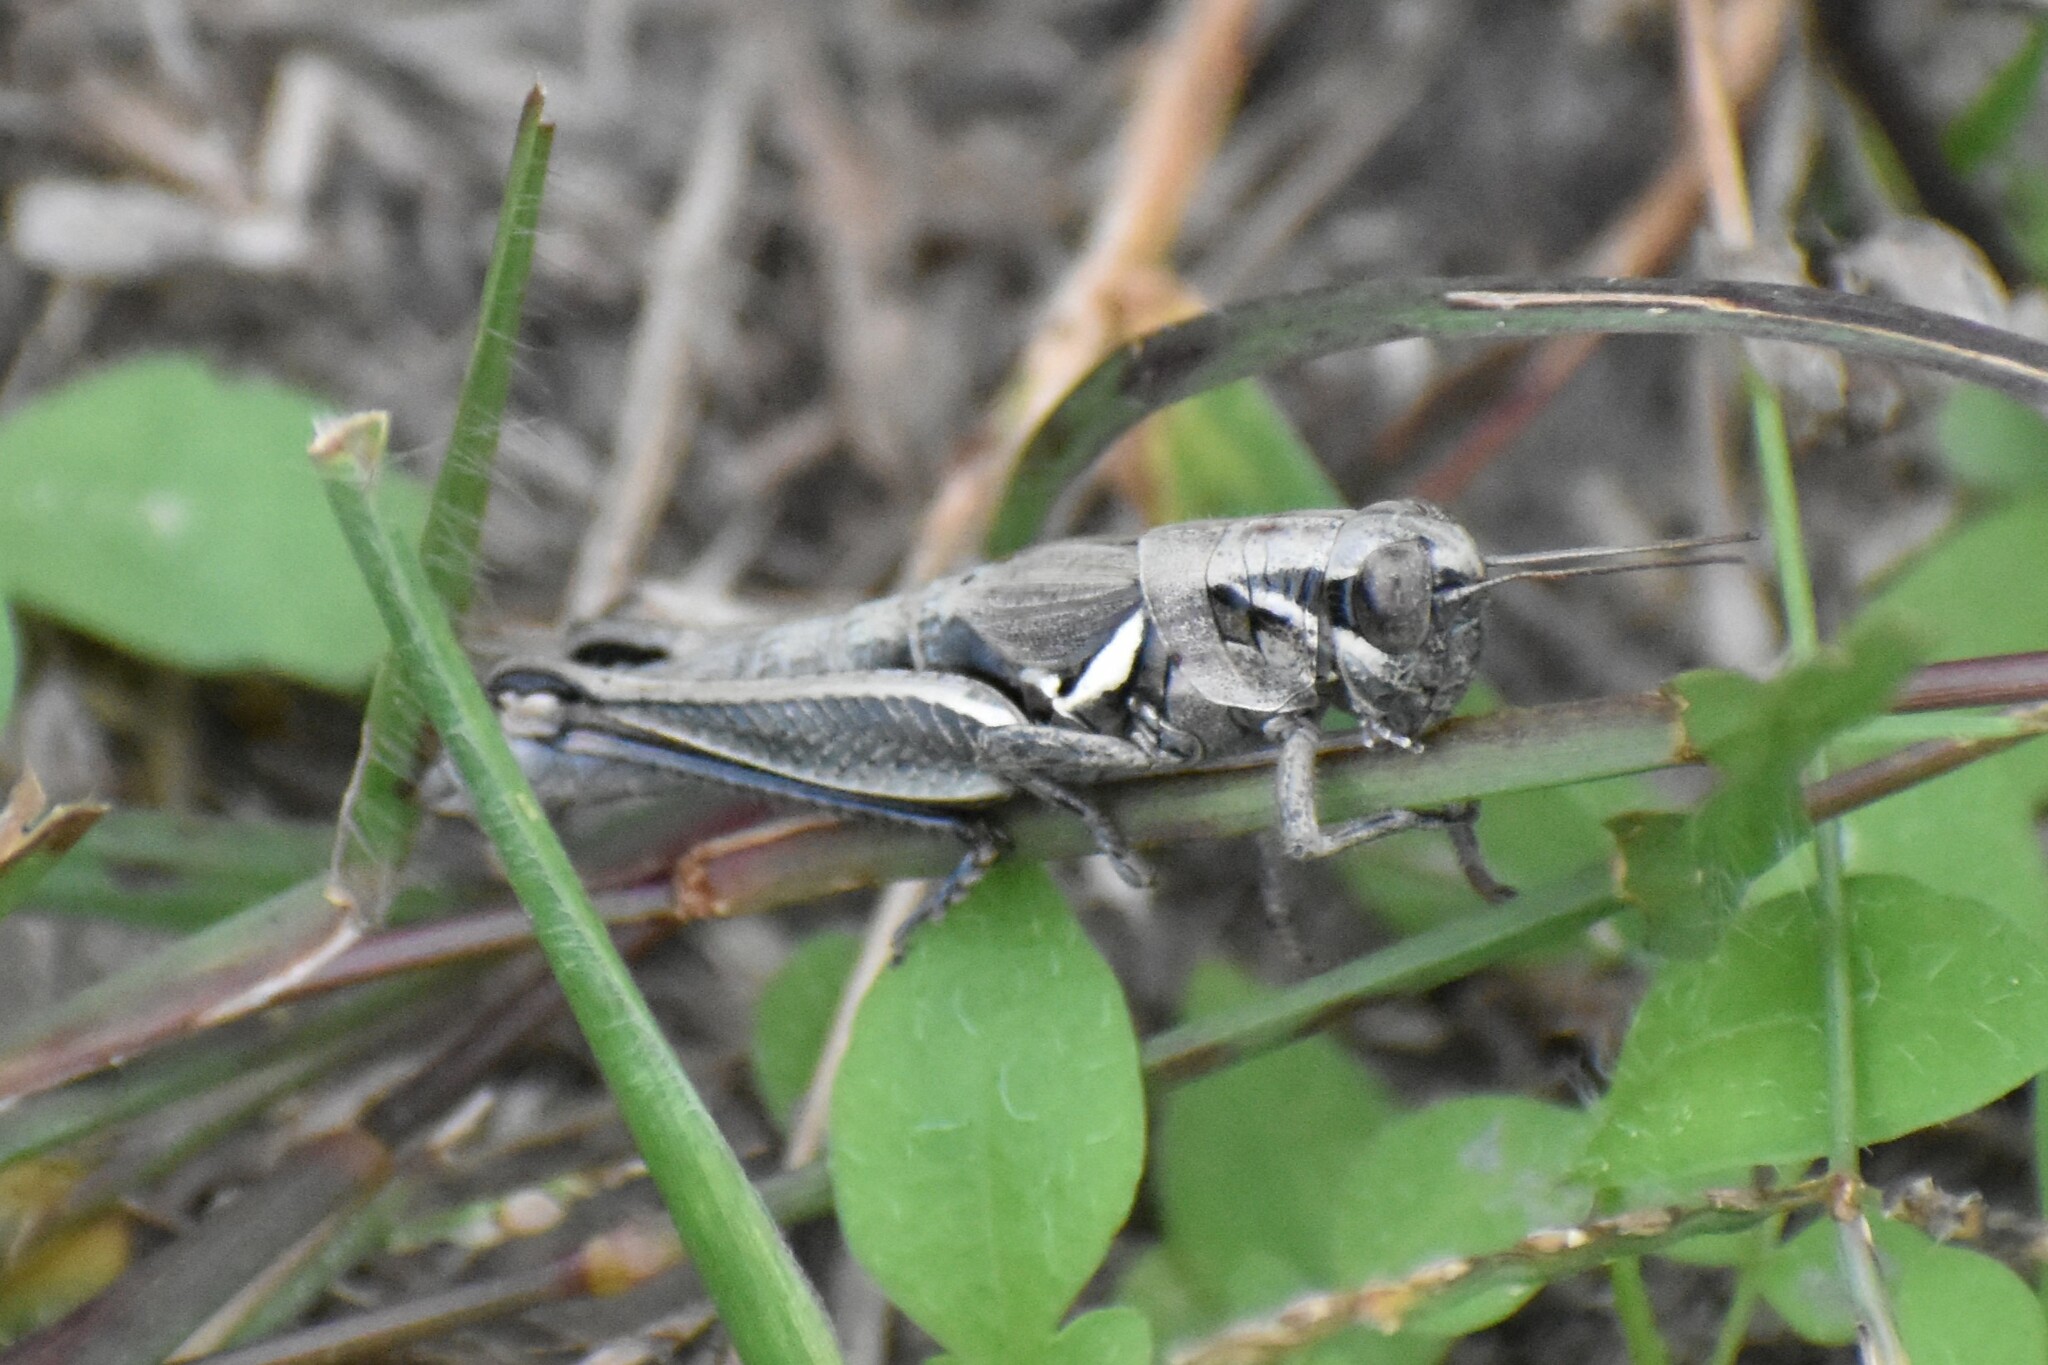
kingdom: Animalia
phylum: Arthropoda
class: Insecta
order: Orthoptera
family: Acrididae
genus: Melanoplus
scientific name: Melanoplus plebejus
